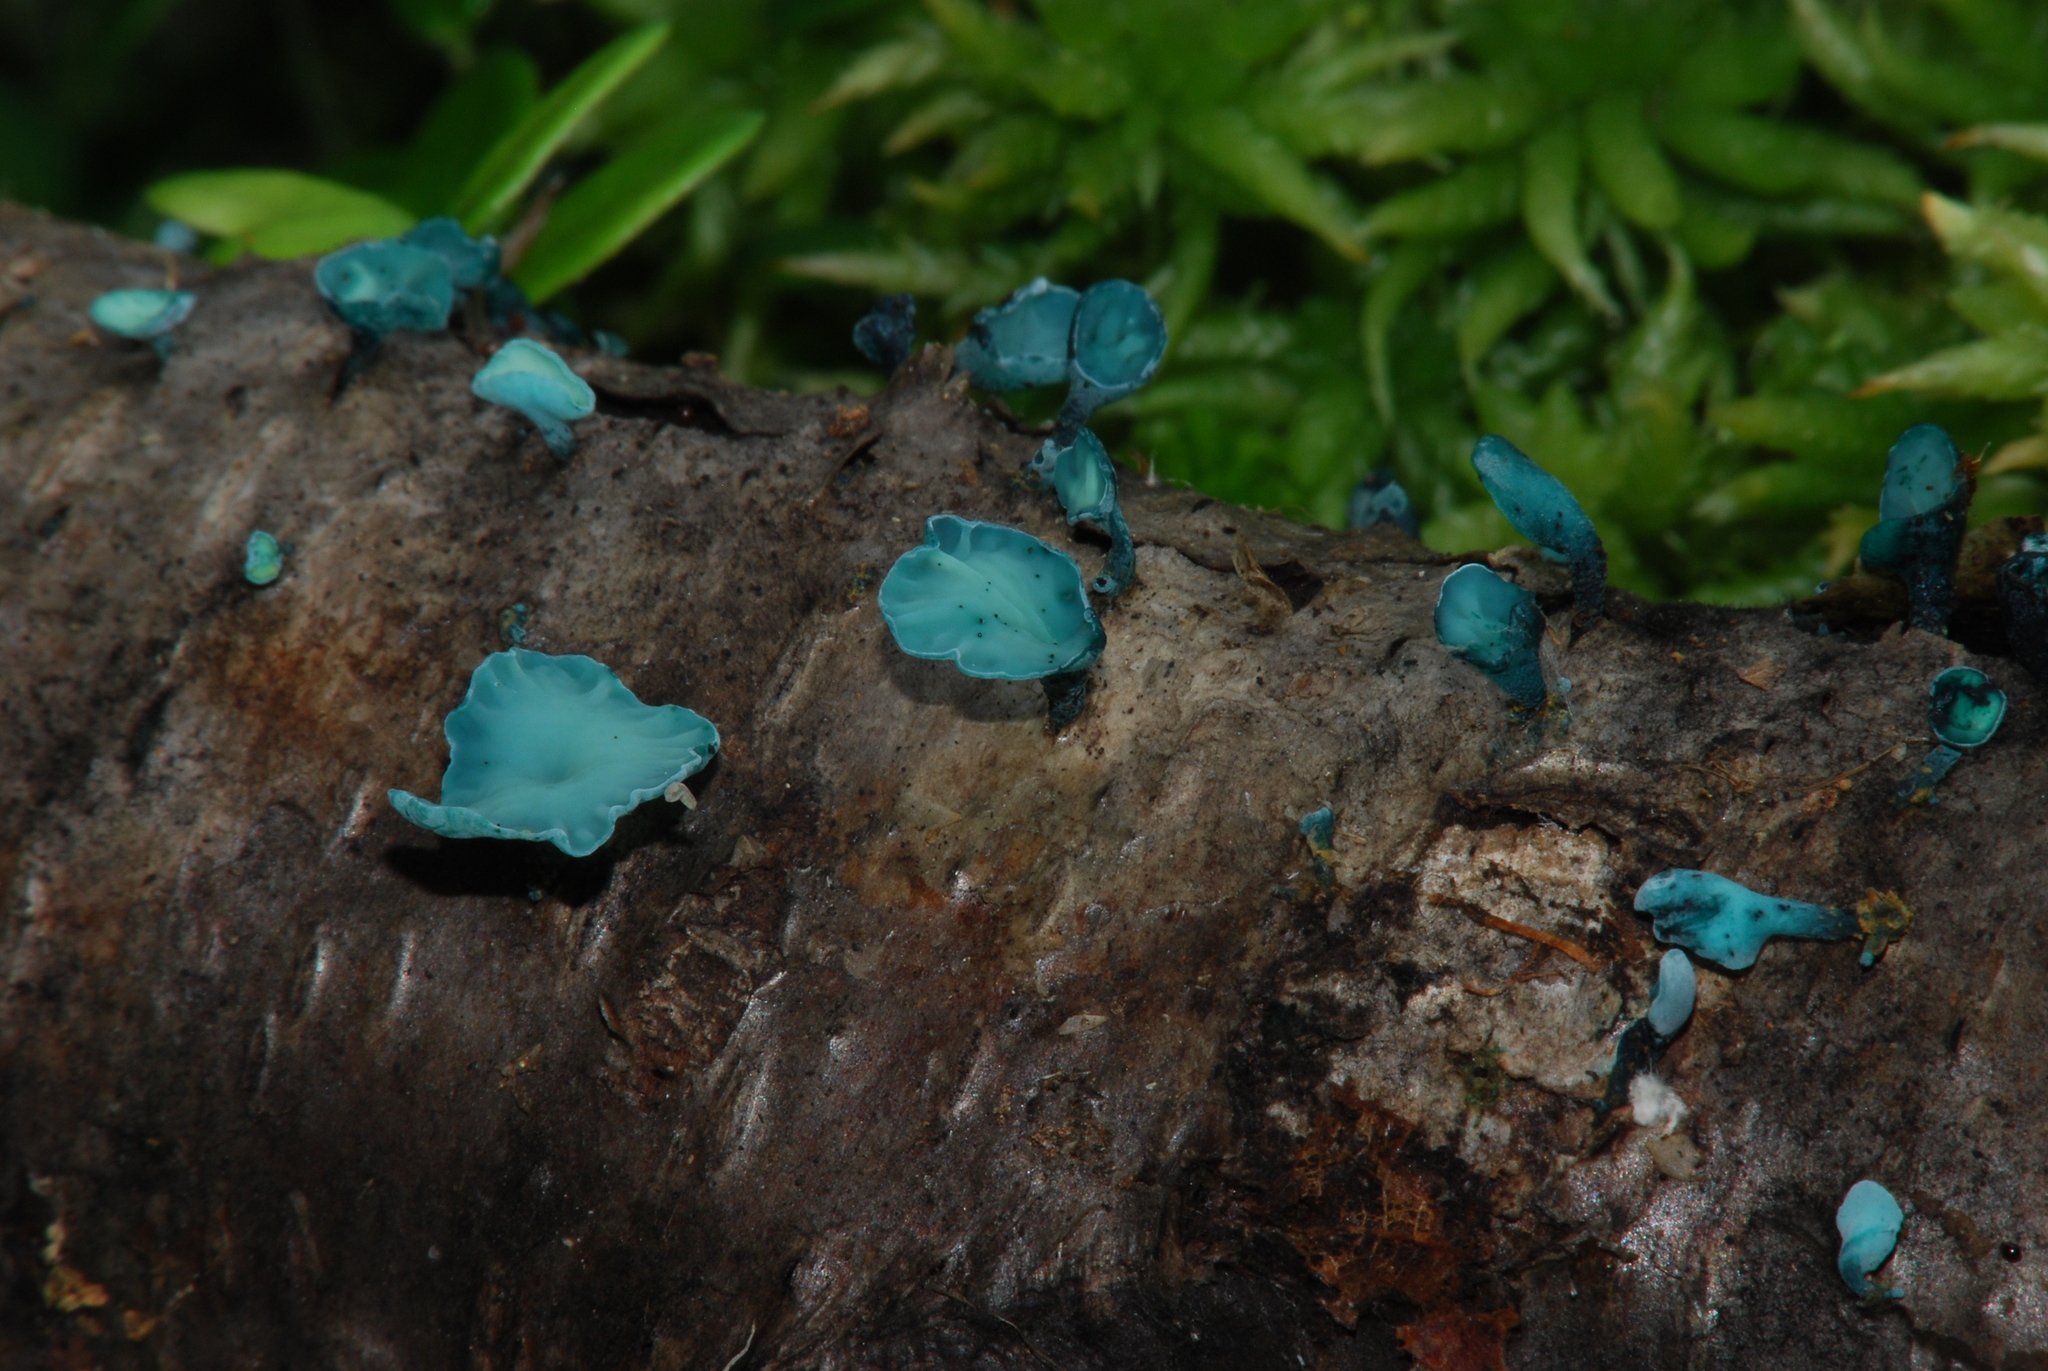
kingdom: Fungi
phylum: Ascomycota
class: Leotiomycetes
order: Helotiales
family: Chlorociboriaceae
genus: Chlorociboria
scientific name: Chlorociboria aeruginascens
